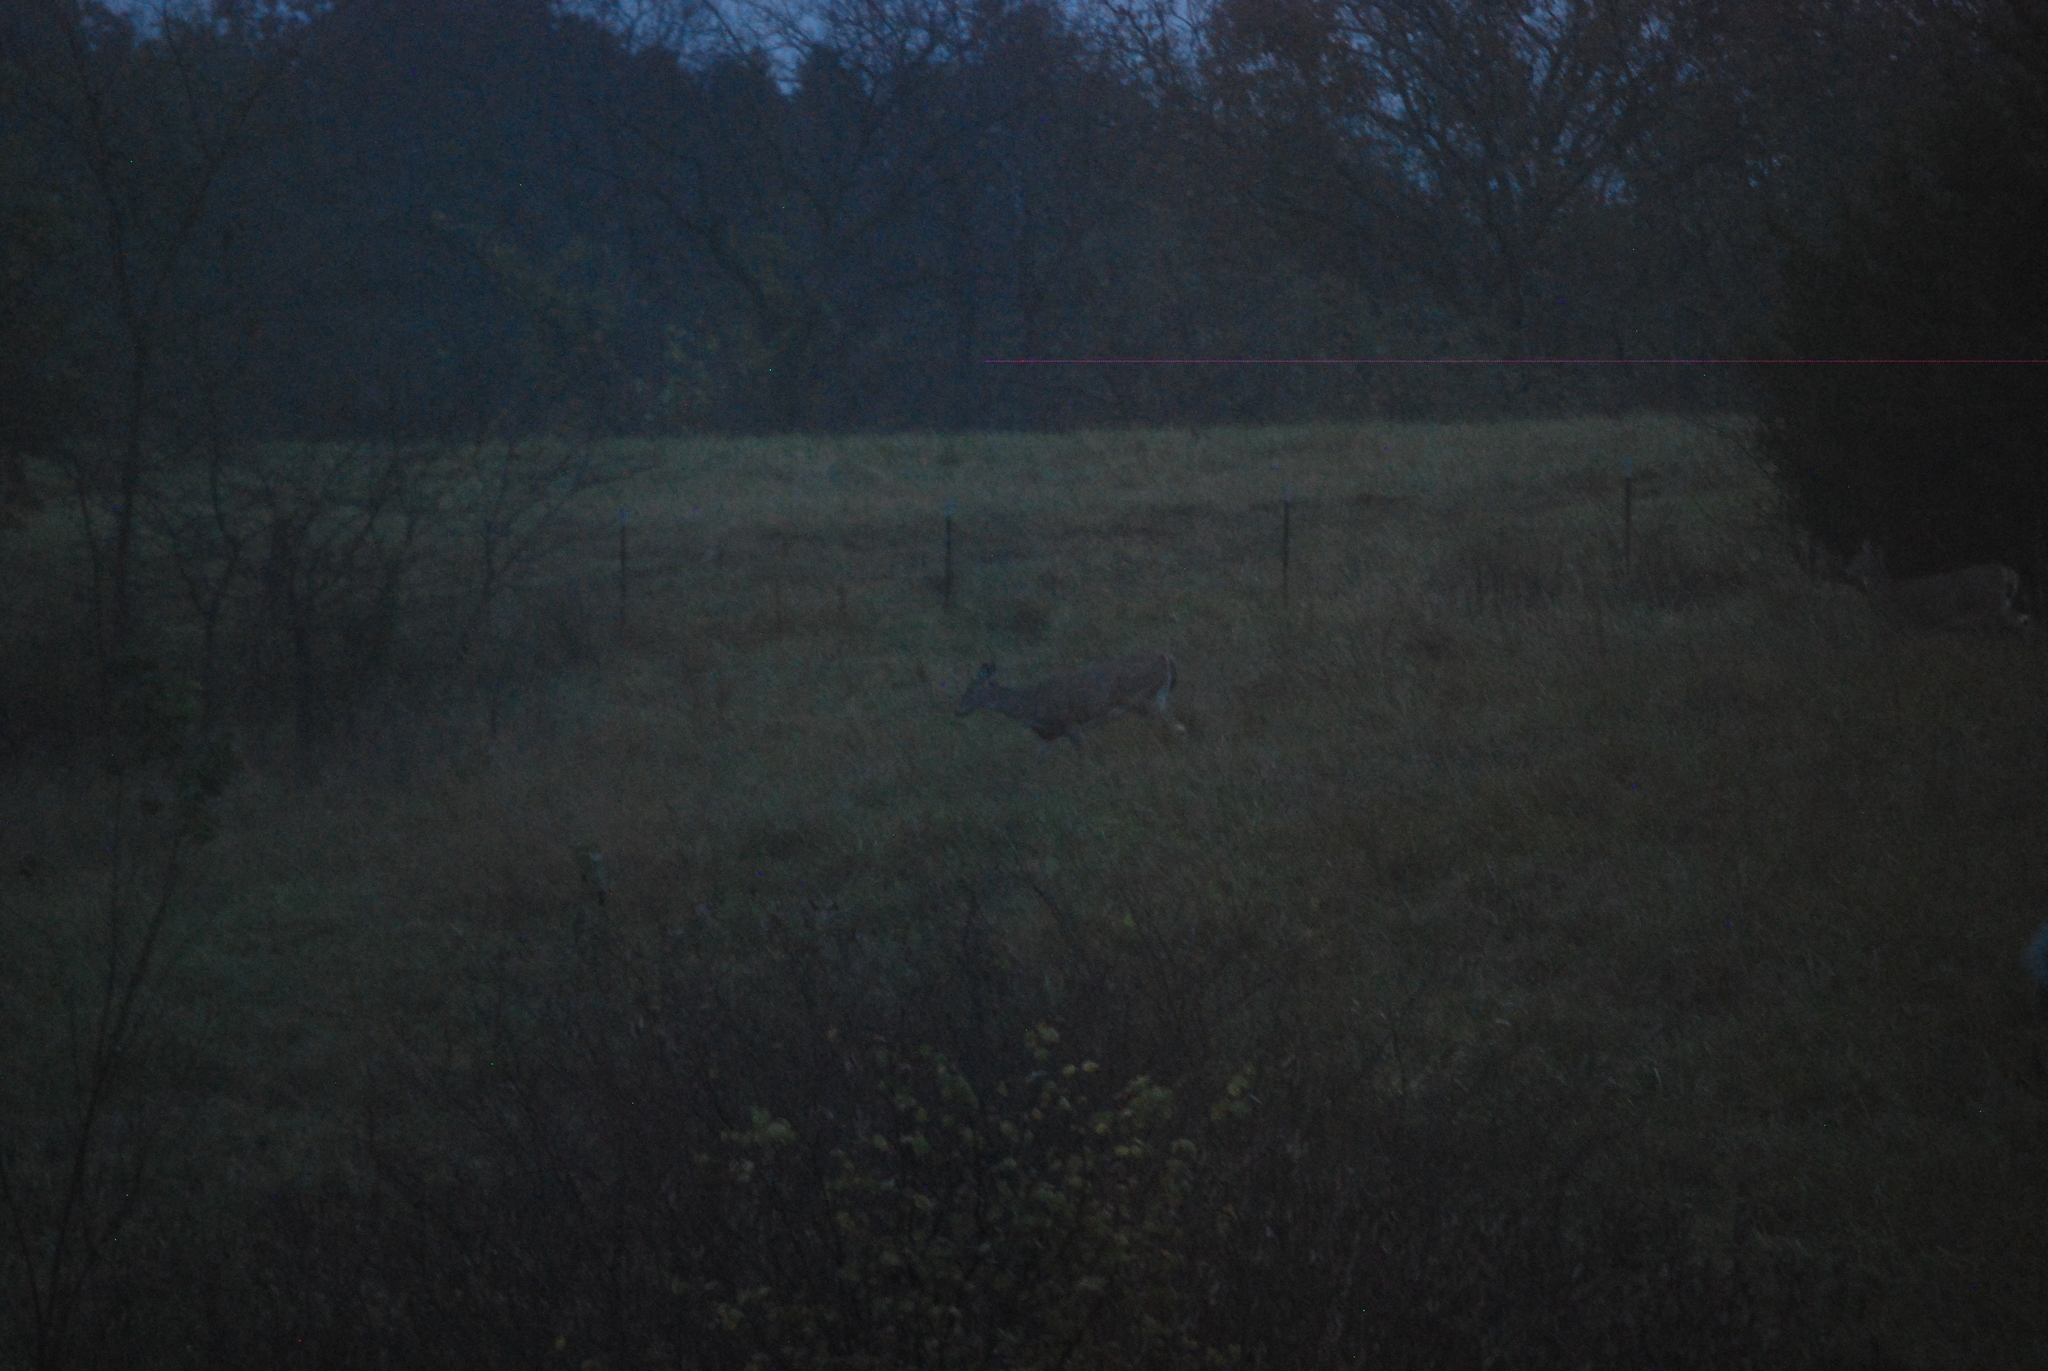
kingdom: Animalia
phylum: Chordata
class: Mammalia
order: Artiodactyla
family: Cervidae
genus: Odocoileus
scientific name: Odocoileus virginianus
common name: White-tailed deer
